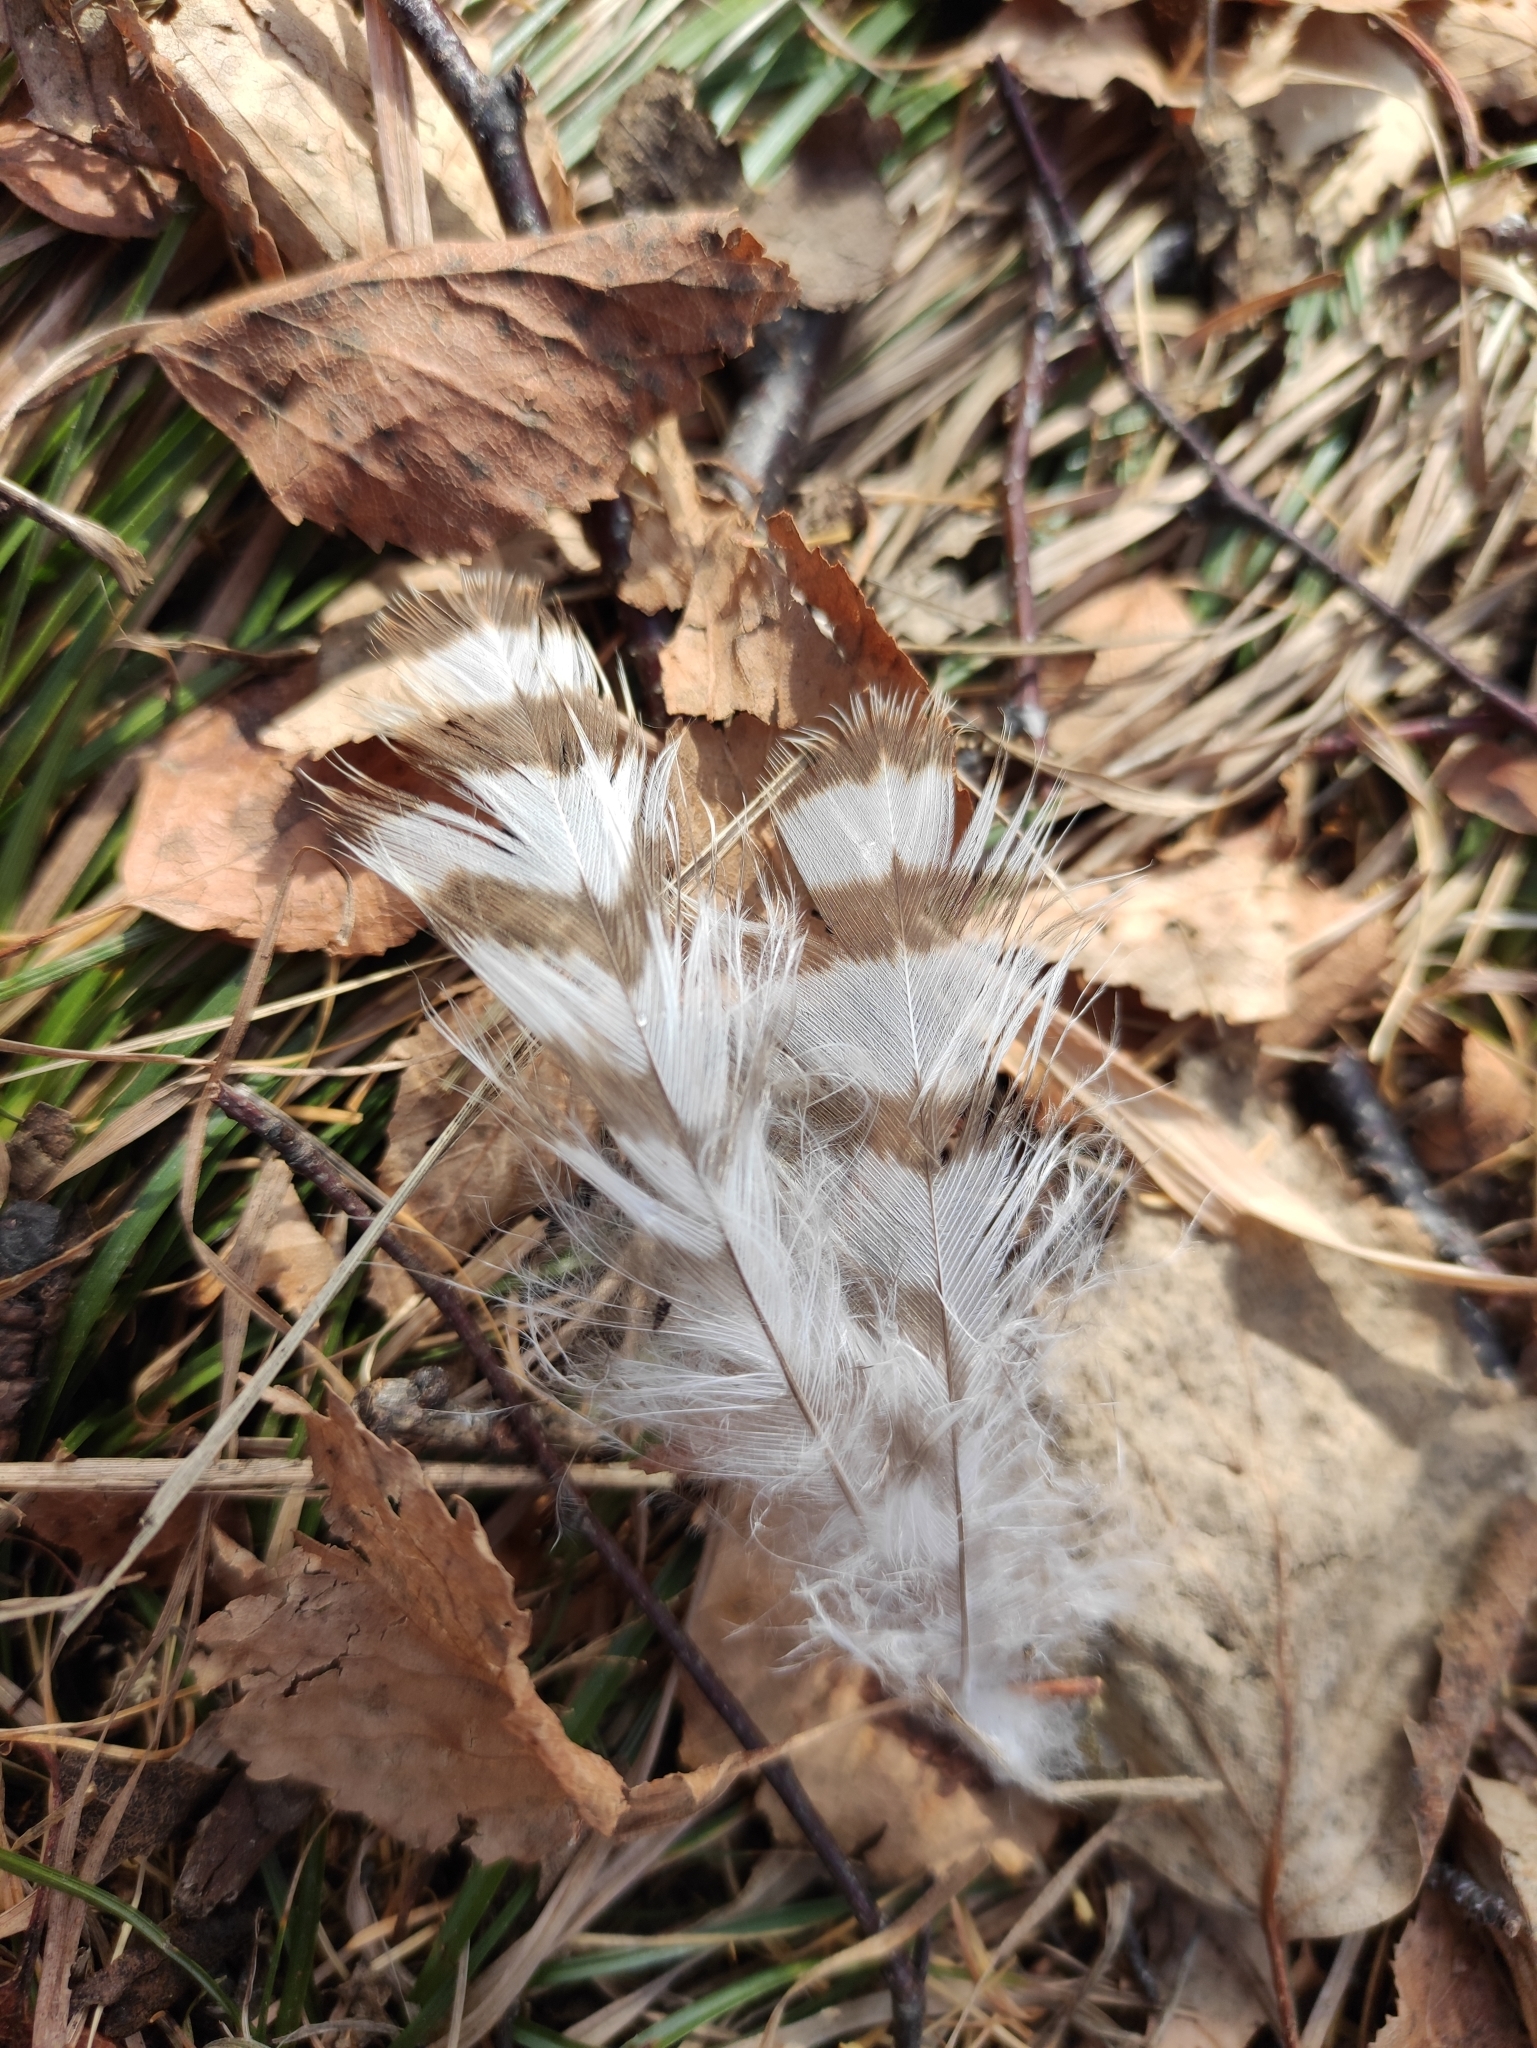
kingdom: Animalia
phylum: Chordata
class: Aves
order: Accipitriformes
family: Accipitridae
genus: Accipiter
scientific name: Accipiter nisus
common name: Eurasian sparrowhawk
